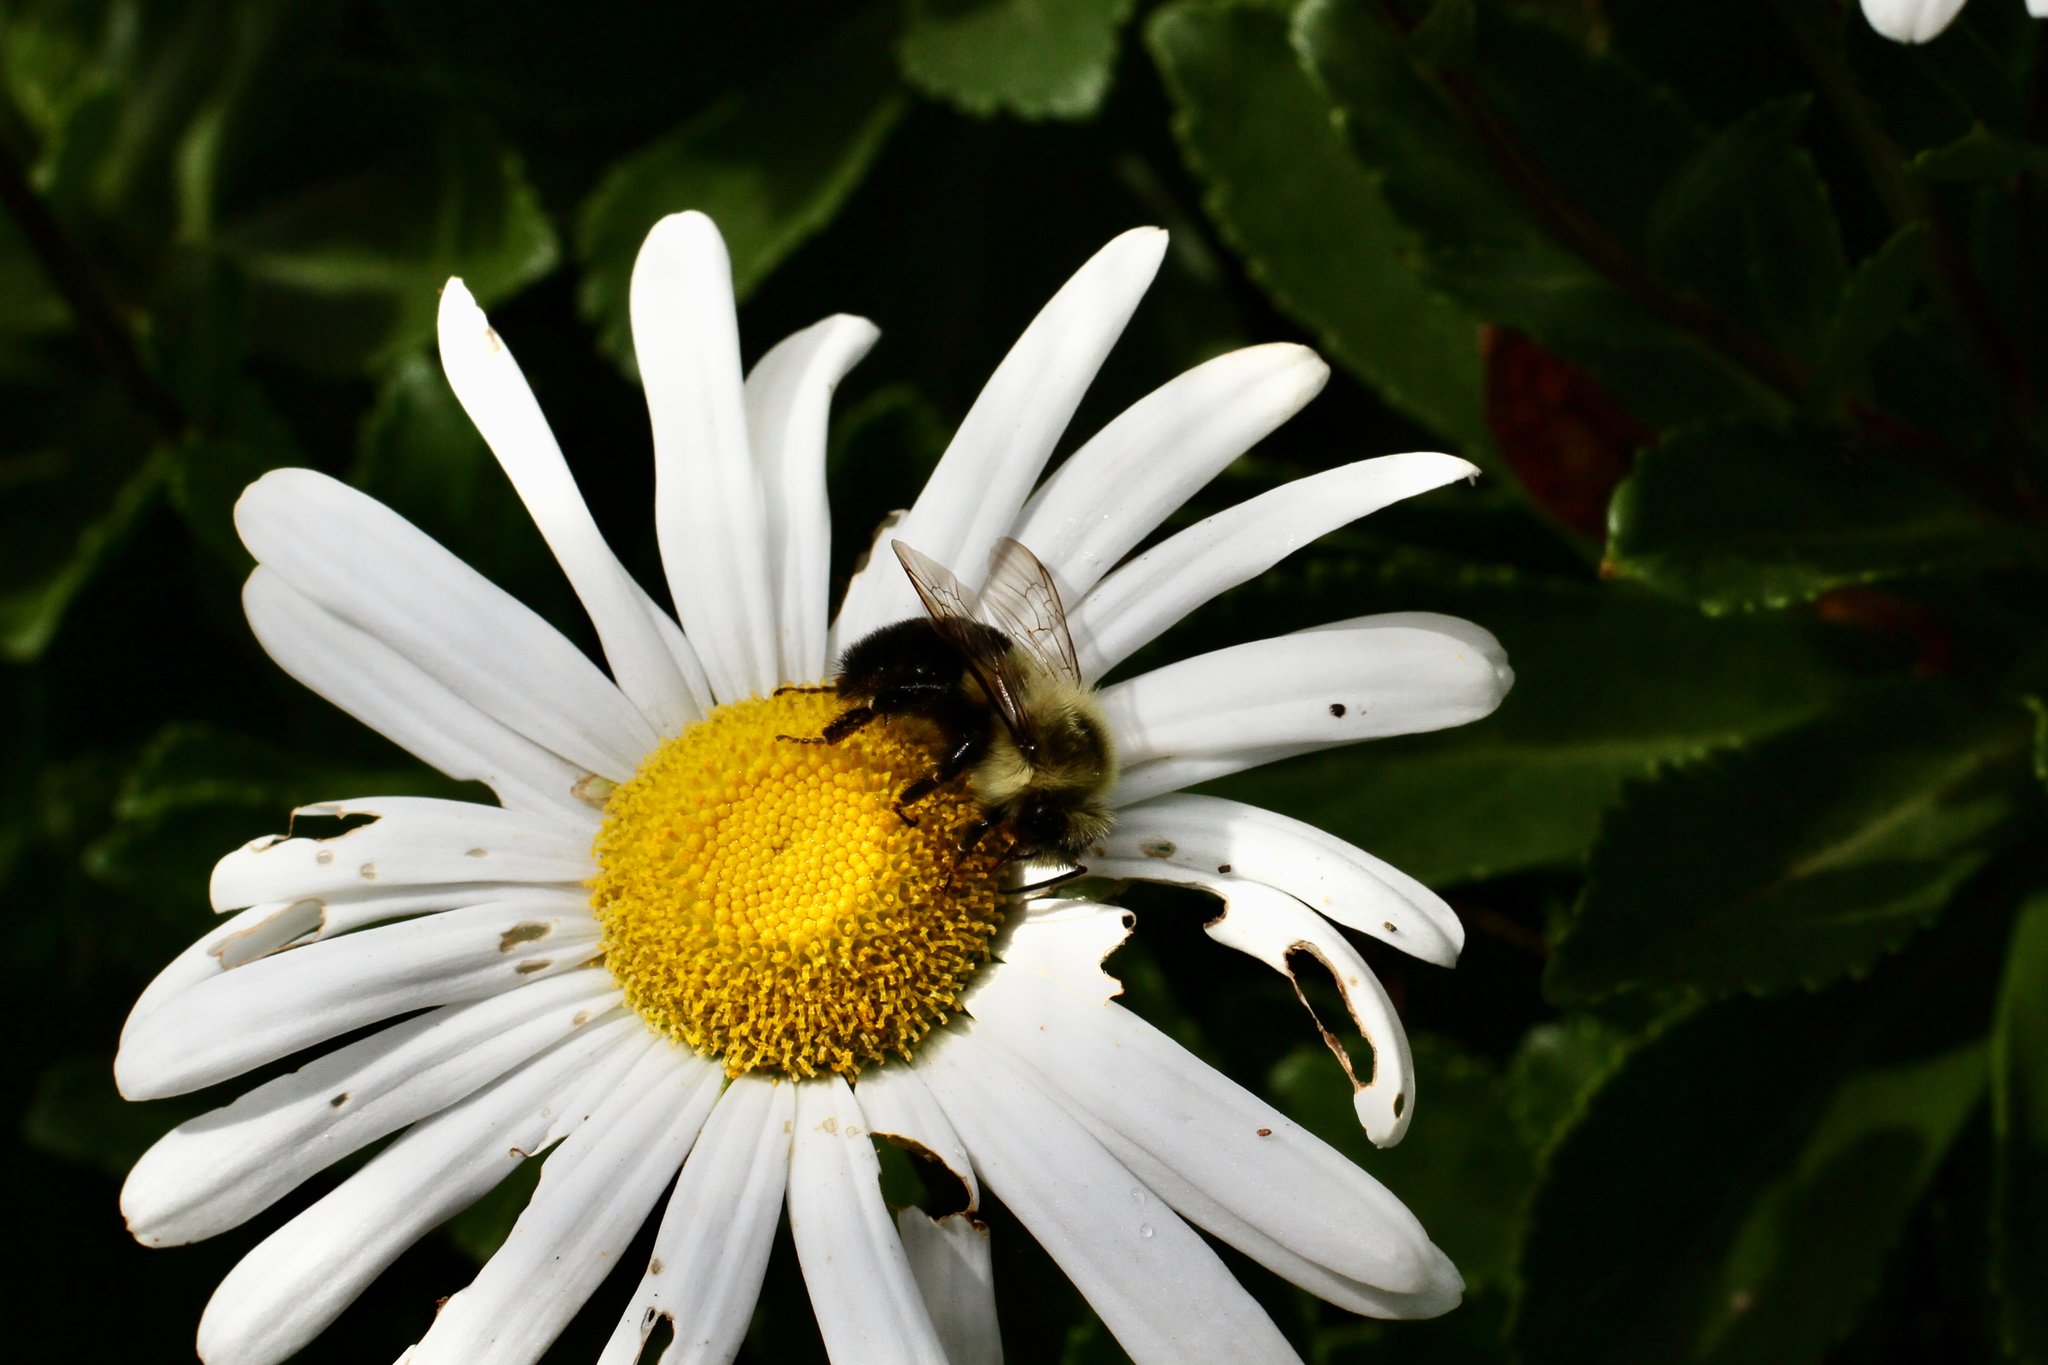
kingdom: Animalia
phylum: Arthropoda
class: Insecta
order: Hymenoptera
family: Apidae
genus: Bombus
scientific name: Bombus impatiens
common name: Common eastern bumble bee
